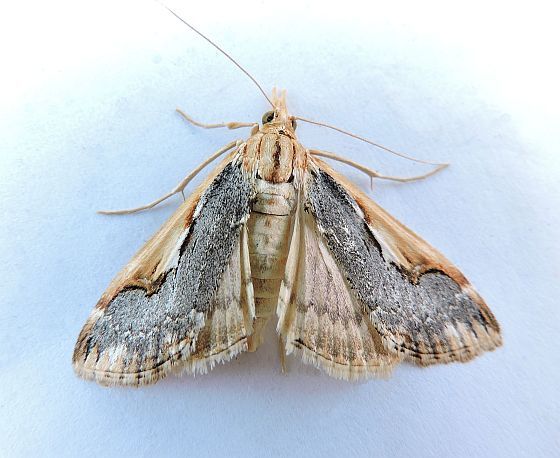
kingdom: Animalia
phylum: Arthropoda
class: Insecta
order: Lepidoptera
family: Crambidae
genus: Loxostege
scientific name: Loxostege albiceralis
